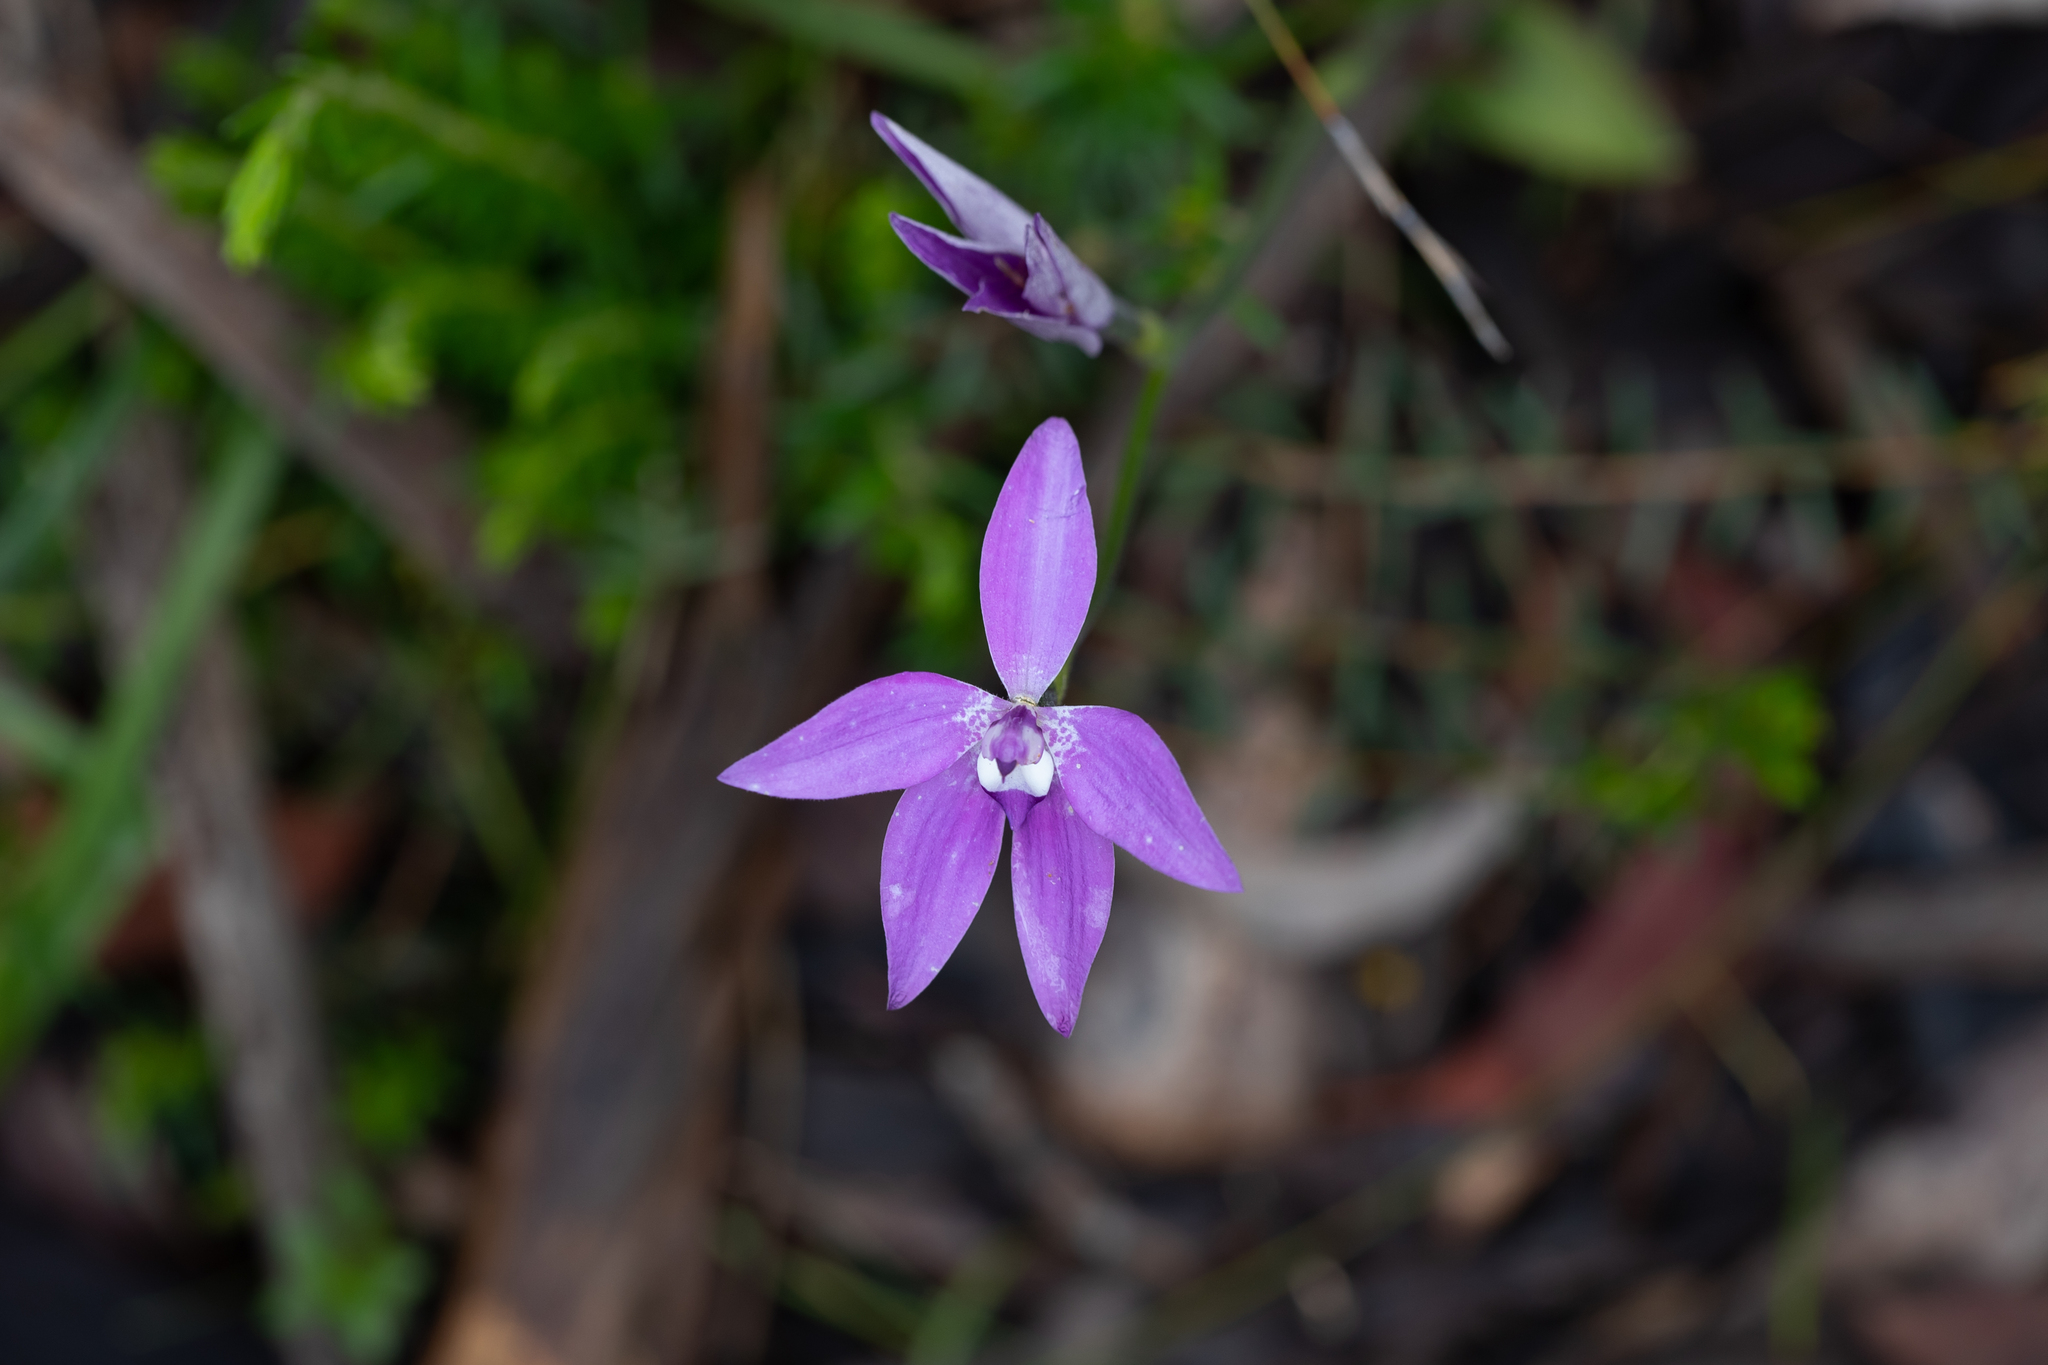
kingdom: Plantae
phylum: Tracheophyta
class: Liliopsida
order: Asparagales
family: Orchidaceae
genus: Caladenia
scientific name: Caladenia major
